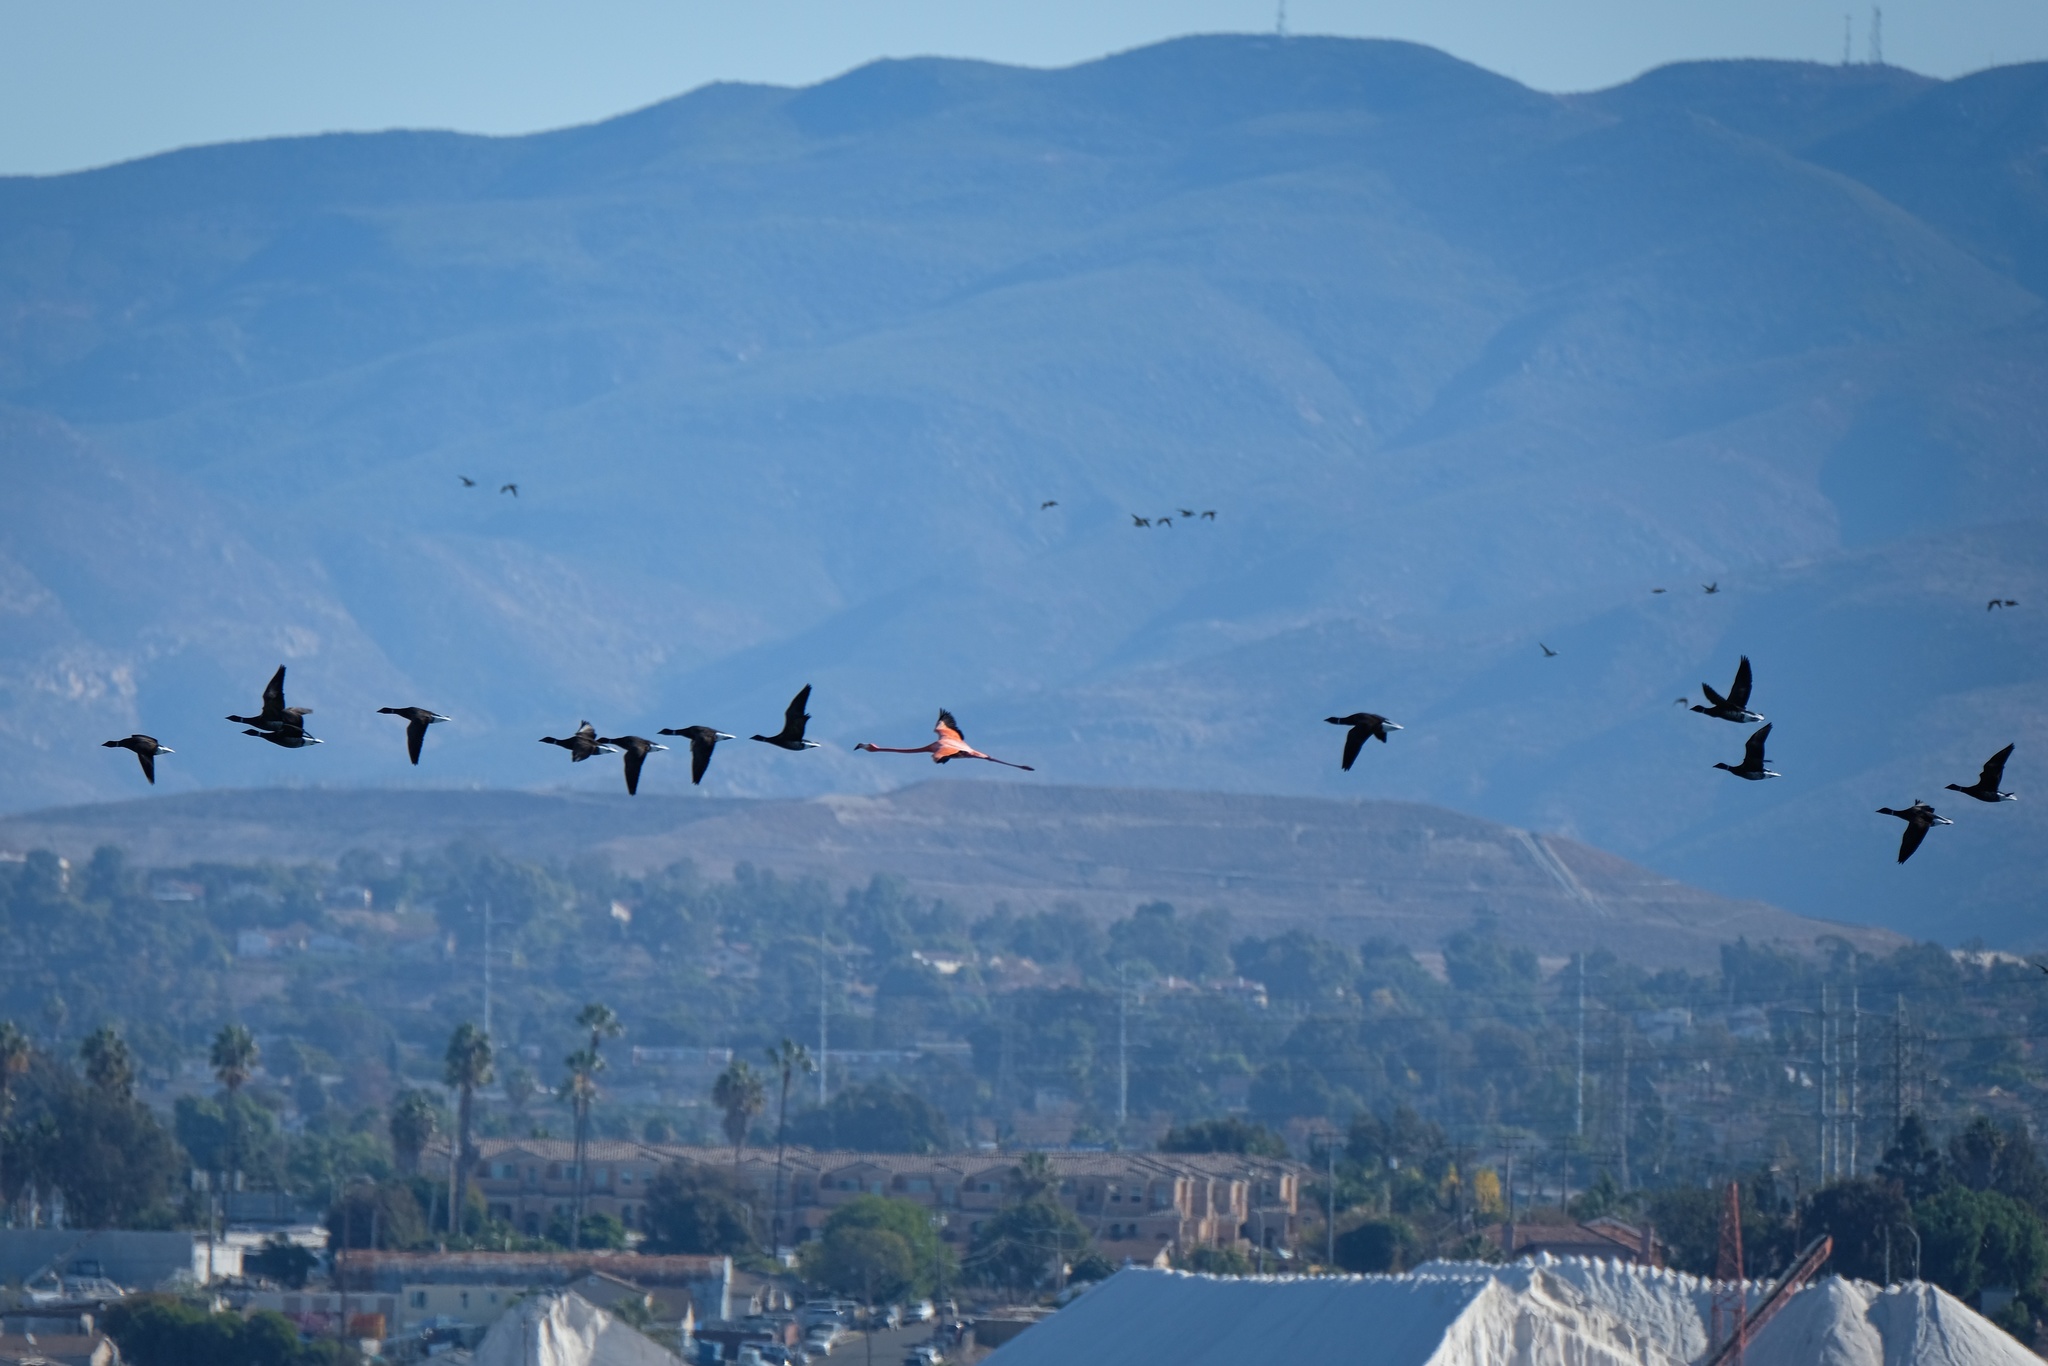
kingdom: Animalia
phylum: Chordata
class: Aves
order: Phoenicopteriformes
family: Phoenicopteridae
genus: Phoenicopterus
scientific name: Phoenicopterus ruber
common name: American flamingo
